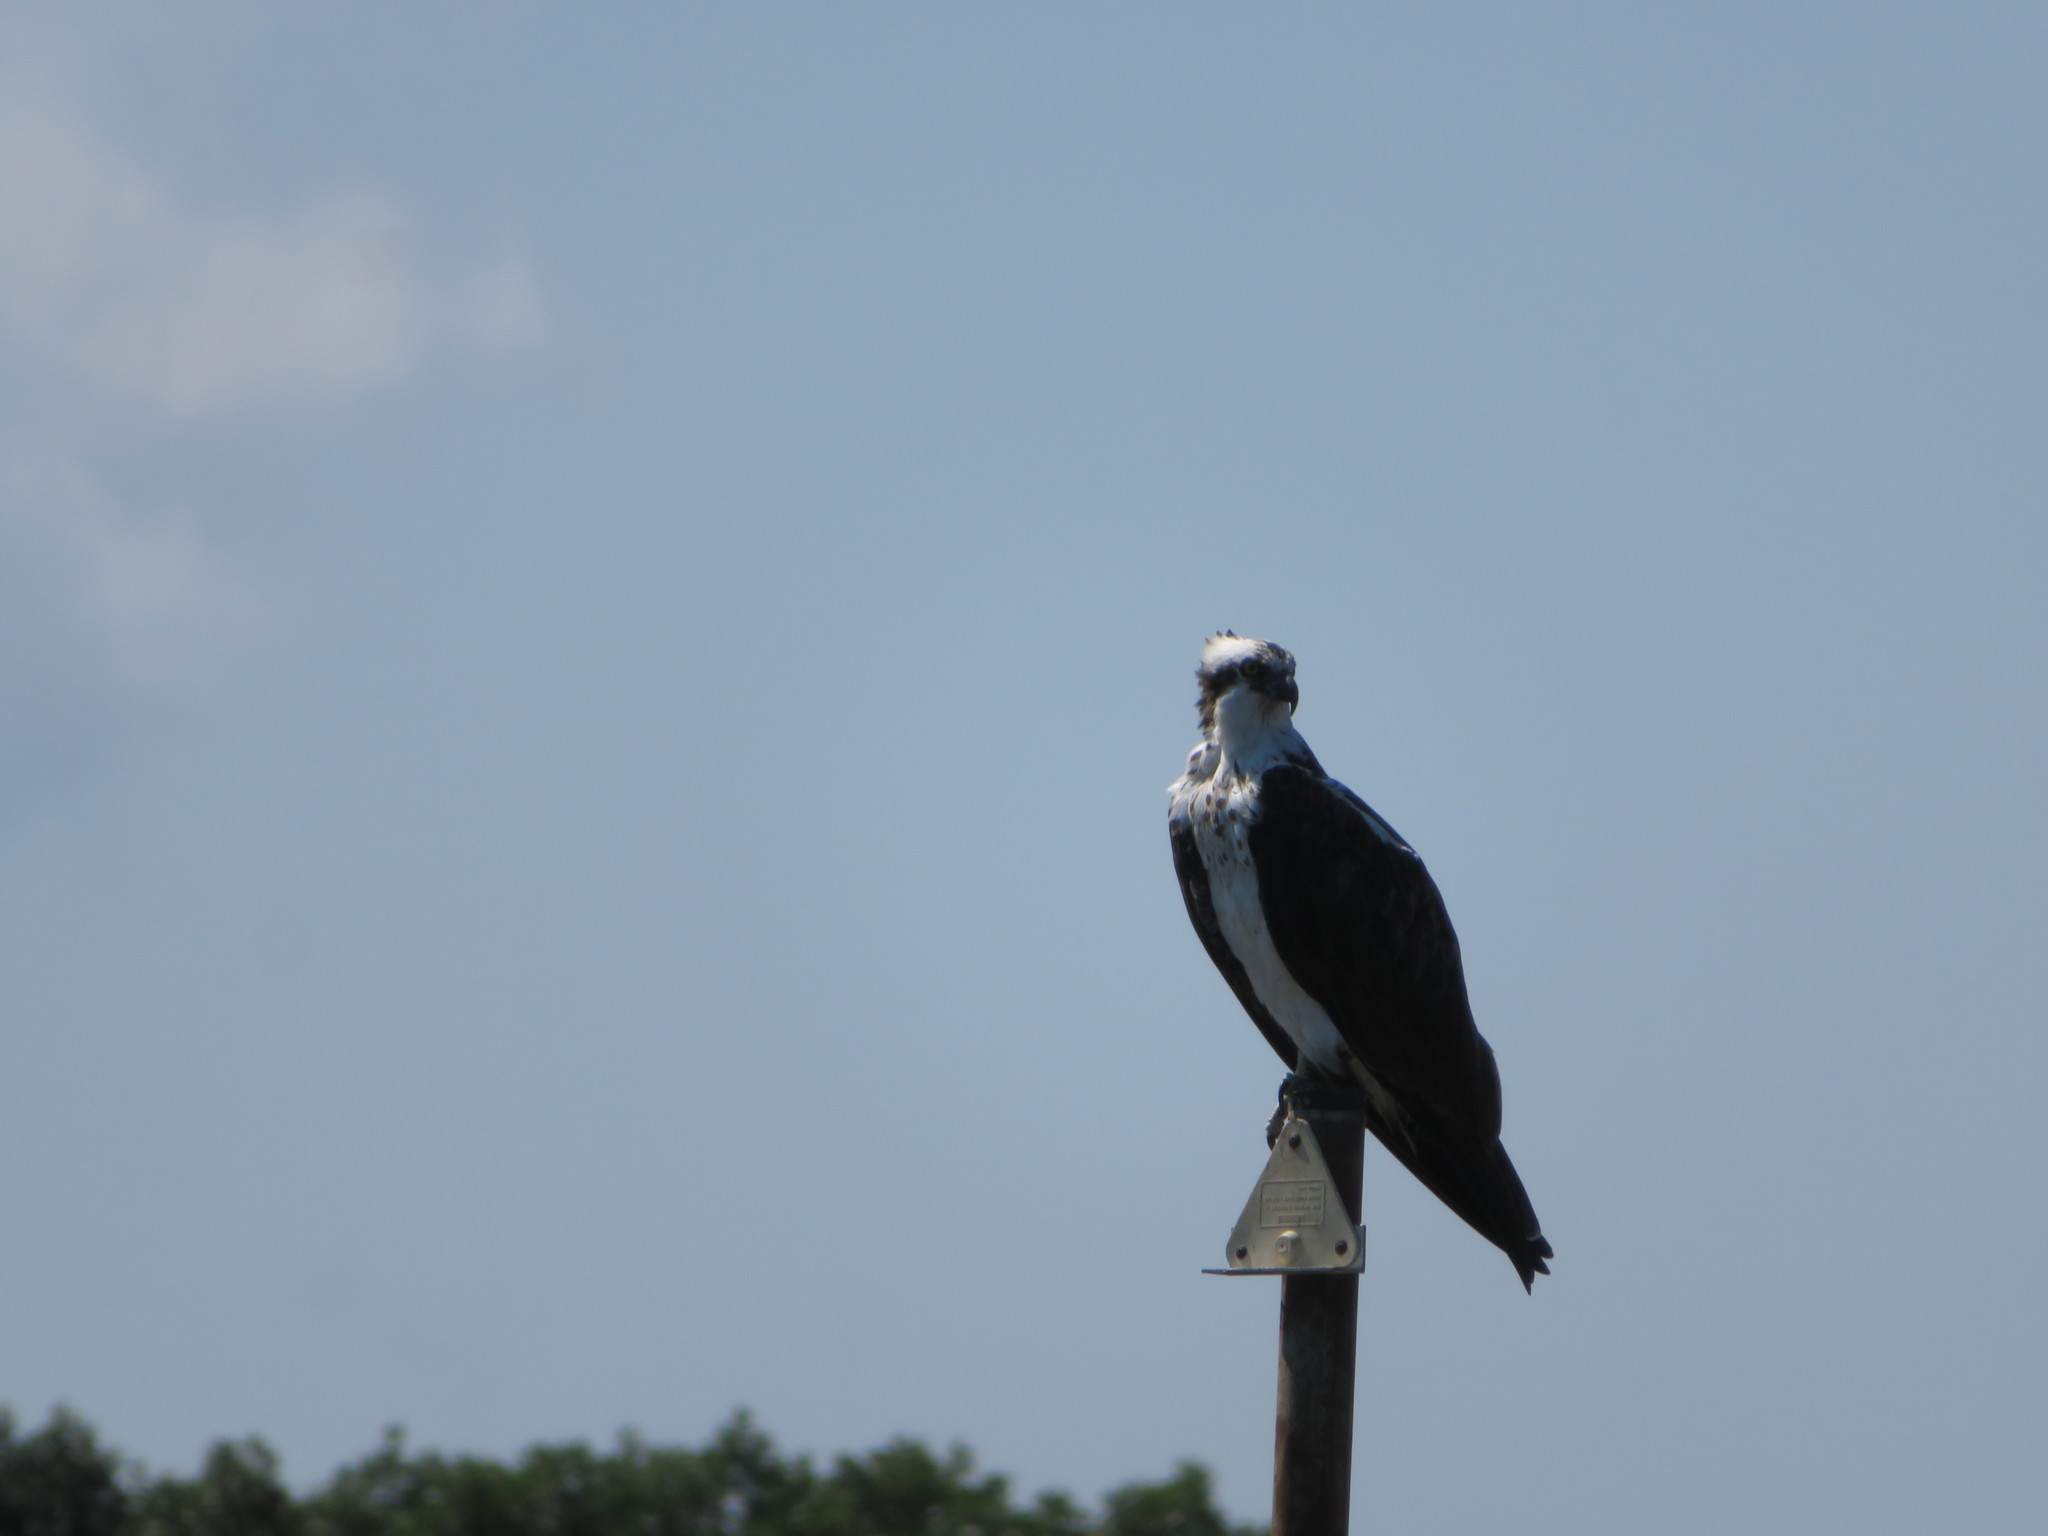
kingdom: Animalia
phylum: Chordata
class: Aves
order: Accipitriformes
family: Pandionidae
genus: Pandion
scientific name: Pandion haliaetus
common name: Osprey
